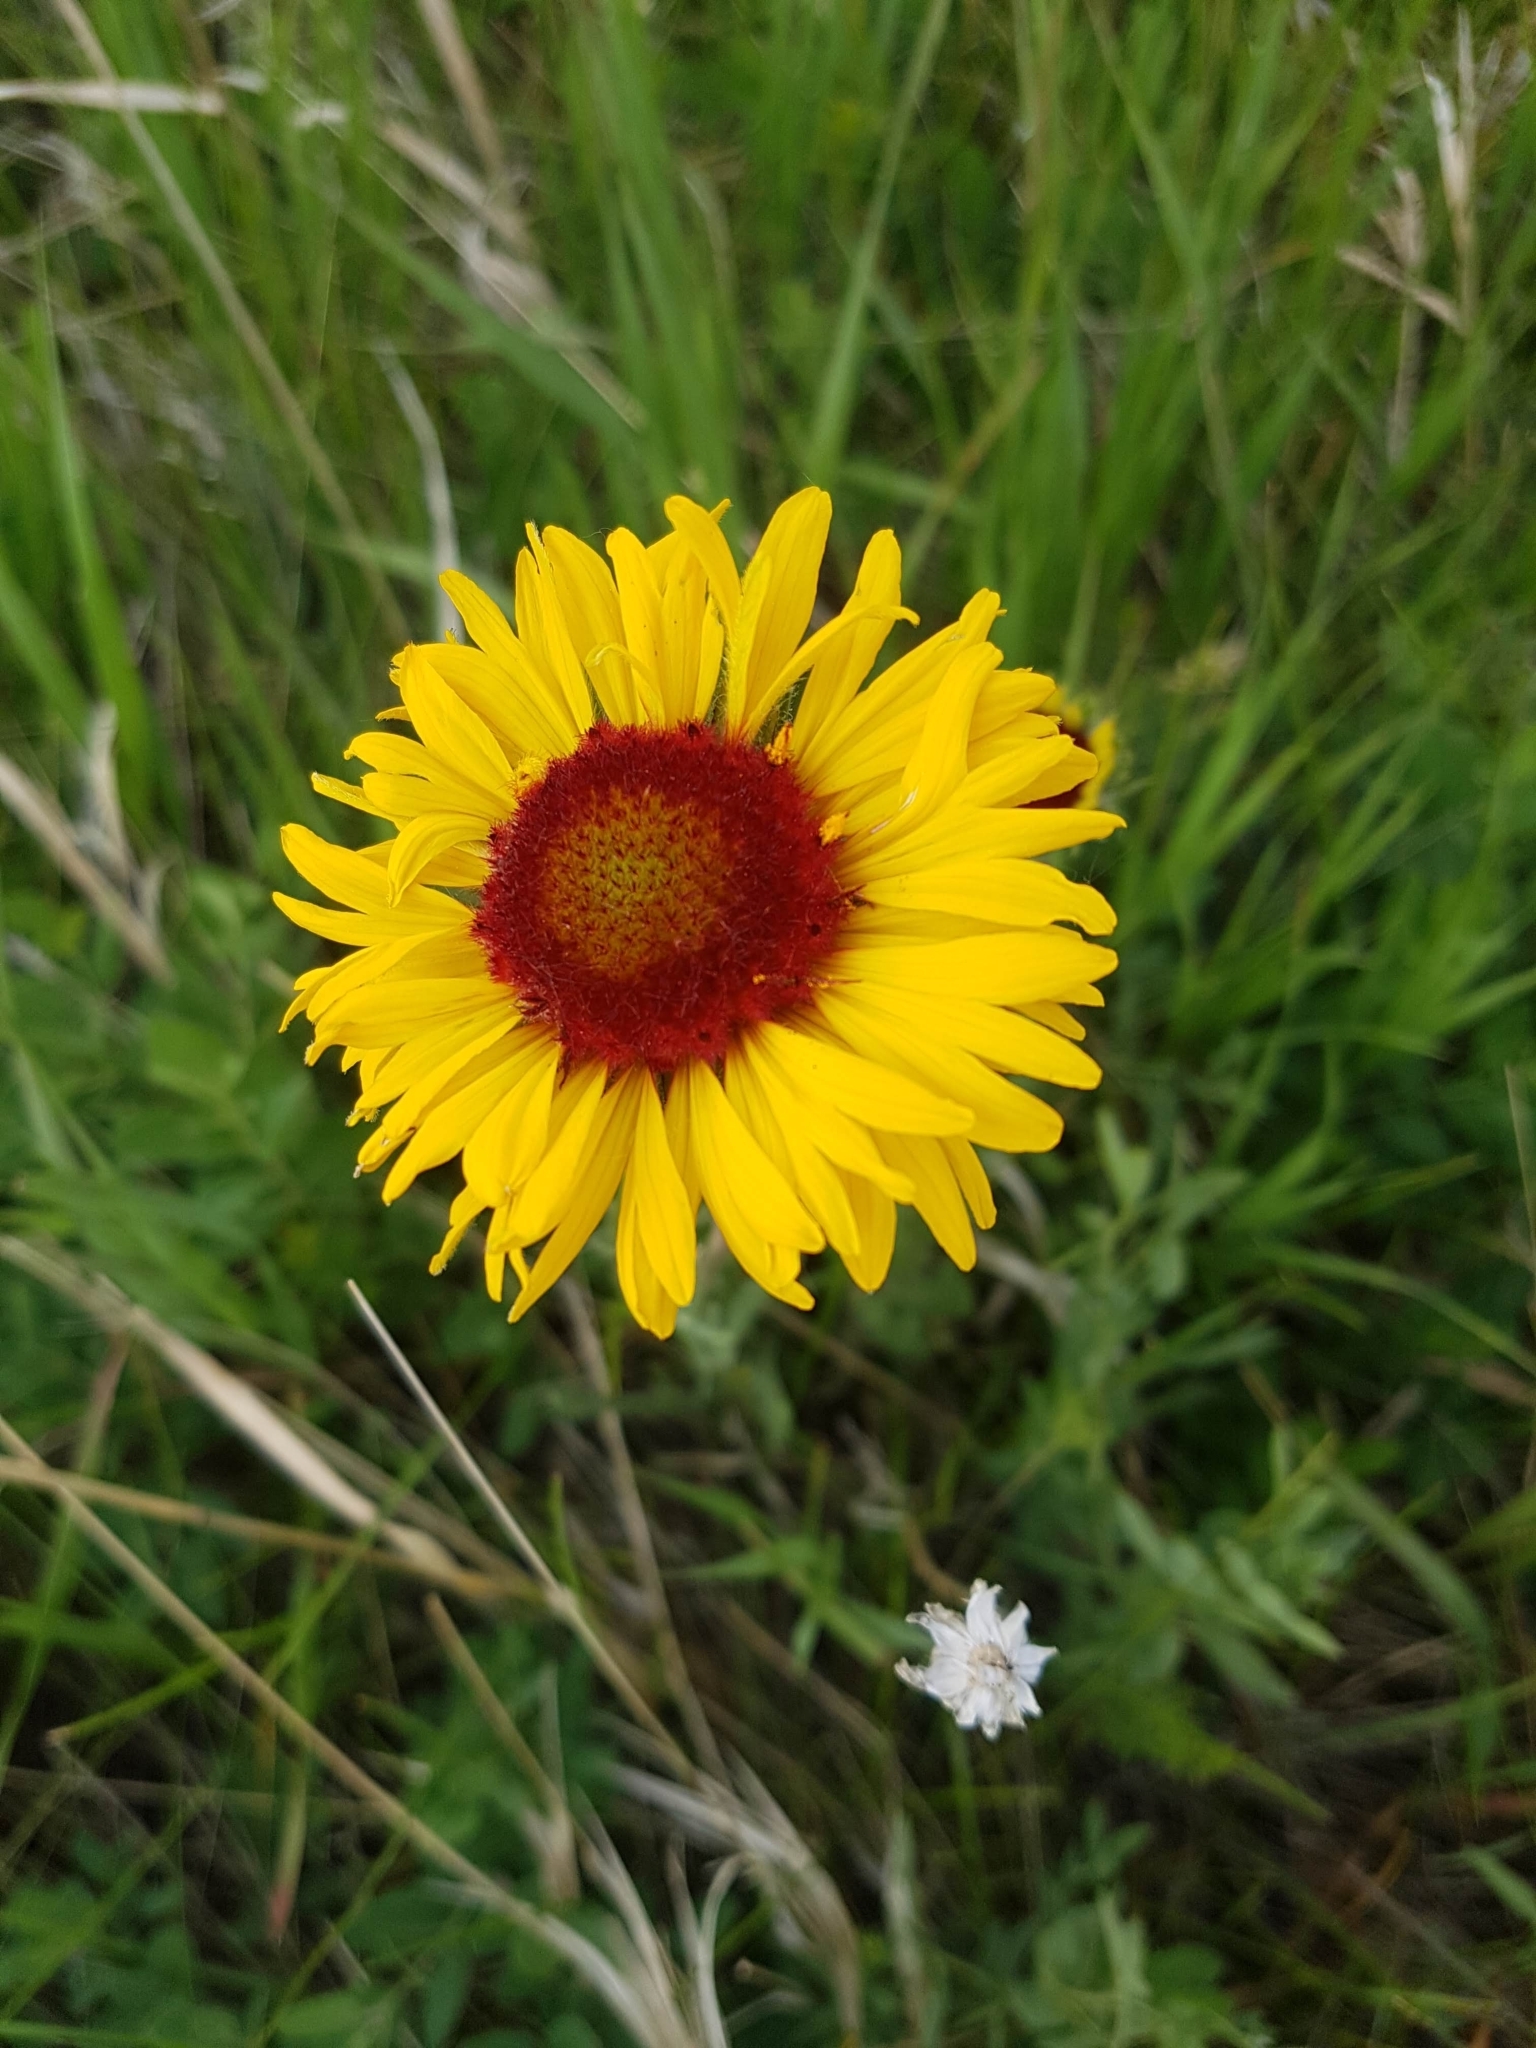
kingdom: Plantae
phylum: Tracheophyta
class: Magnoliopsida
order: Asterales
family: Asteraceae
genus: Gaillardia
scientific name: Gaillardia aristata
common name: Blanket-flower
